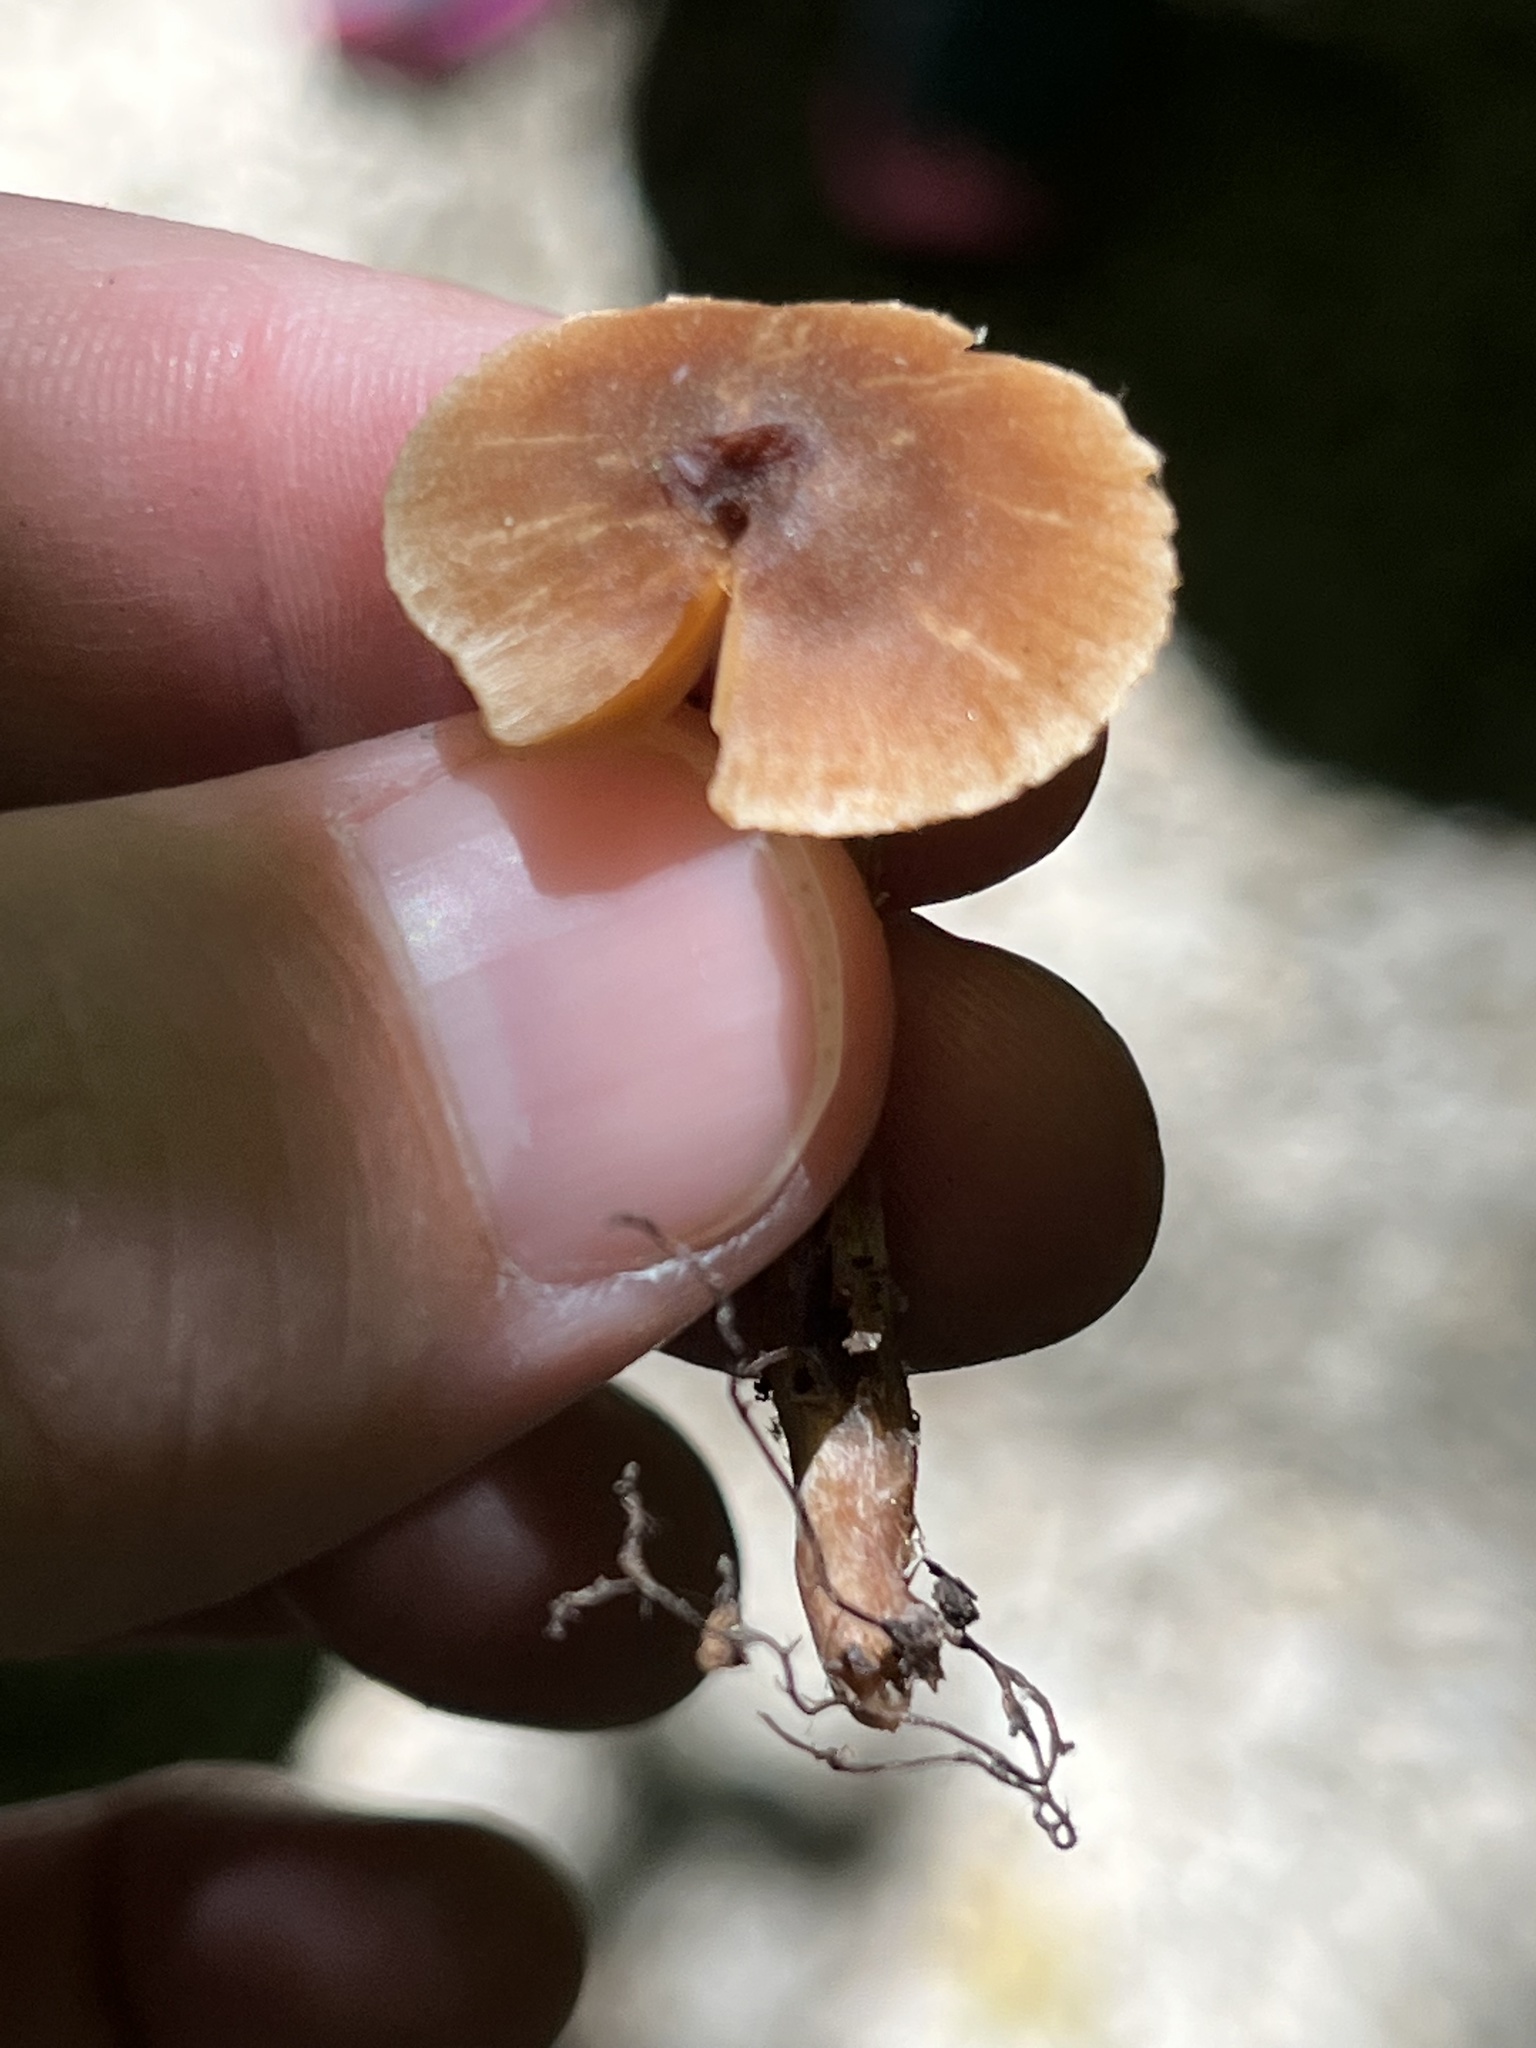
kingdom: Fungi
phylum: Basidiomycota
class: Agaricomycetes
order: Agaricales
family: Tubariaceae
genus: Tubaria
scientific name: Tubaria furfuracea
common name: Scurfy twiglet
